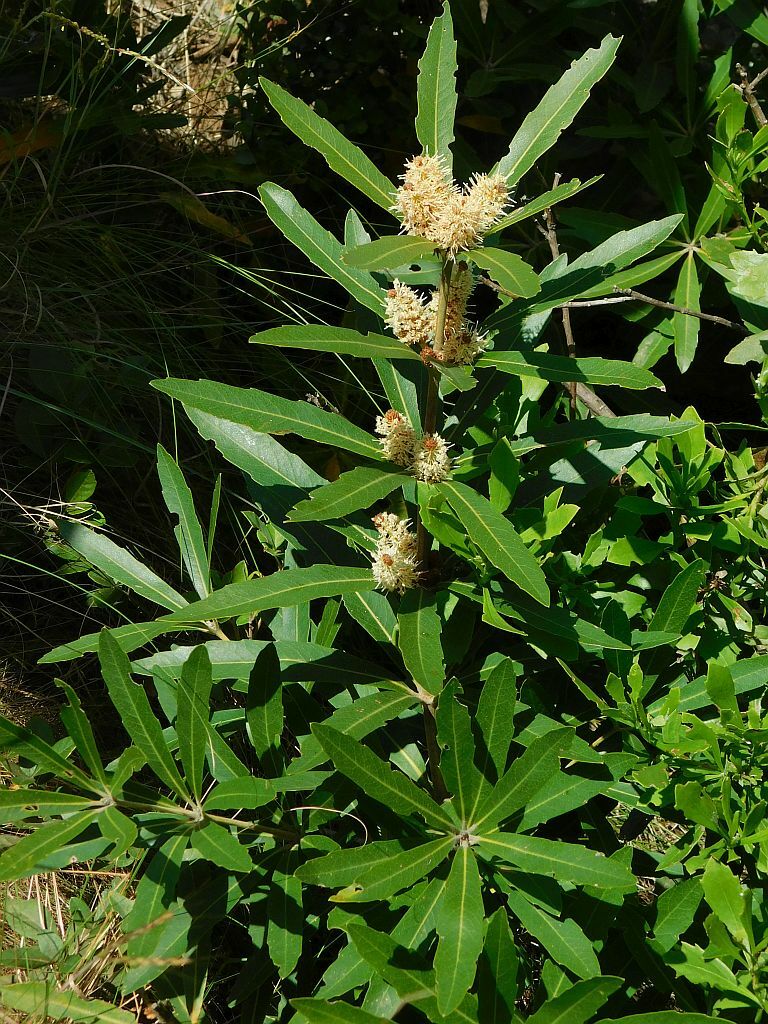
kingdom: Plantae
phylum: Tracheophyta
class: Magnoliopsida
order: Proteales
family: Proteaceae
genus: Brabejum
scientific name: Brabejum stellatifolium
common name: Wild almond
